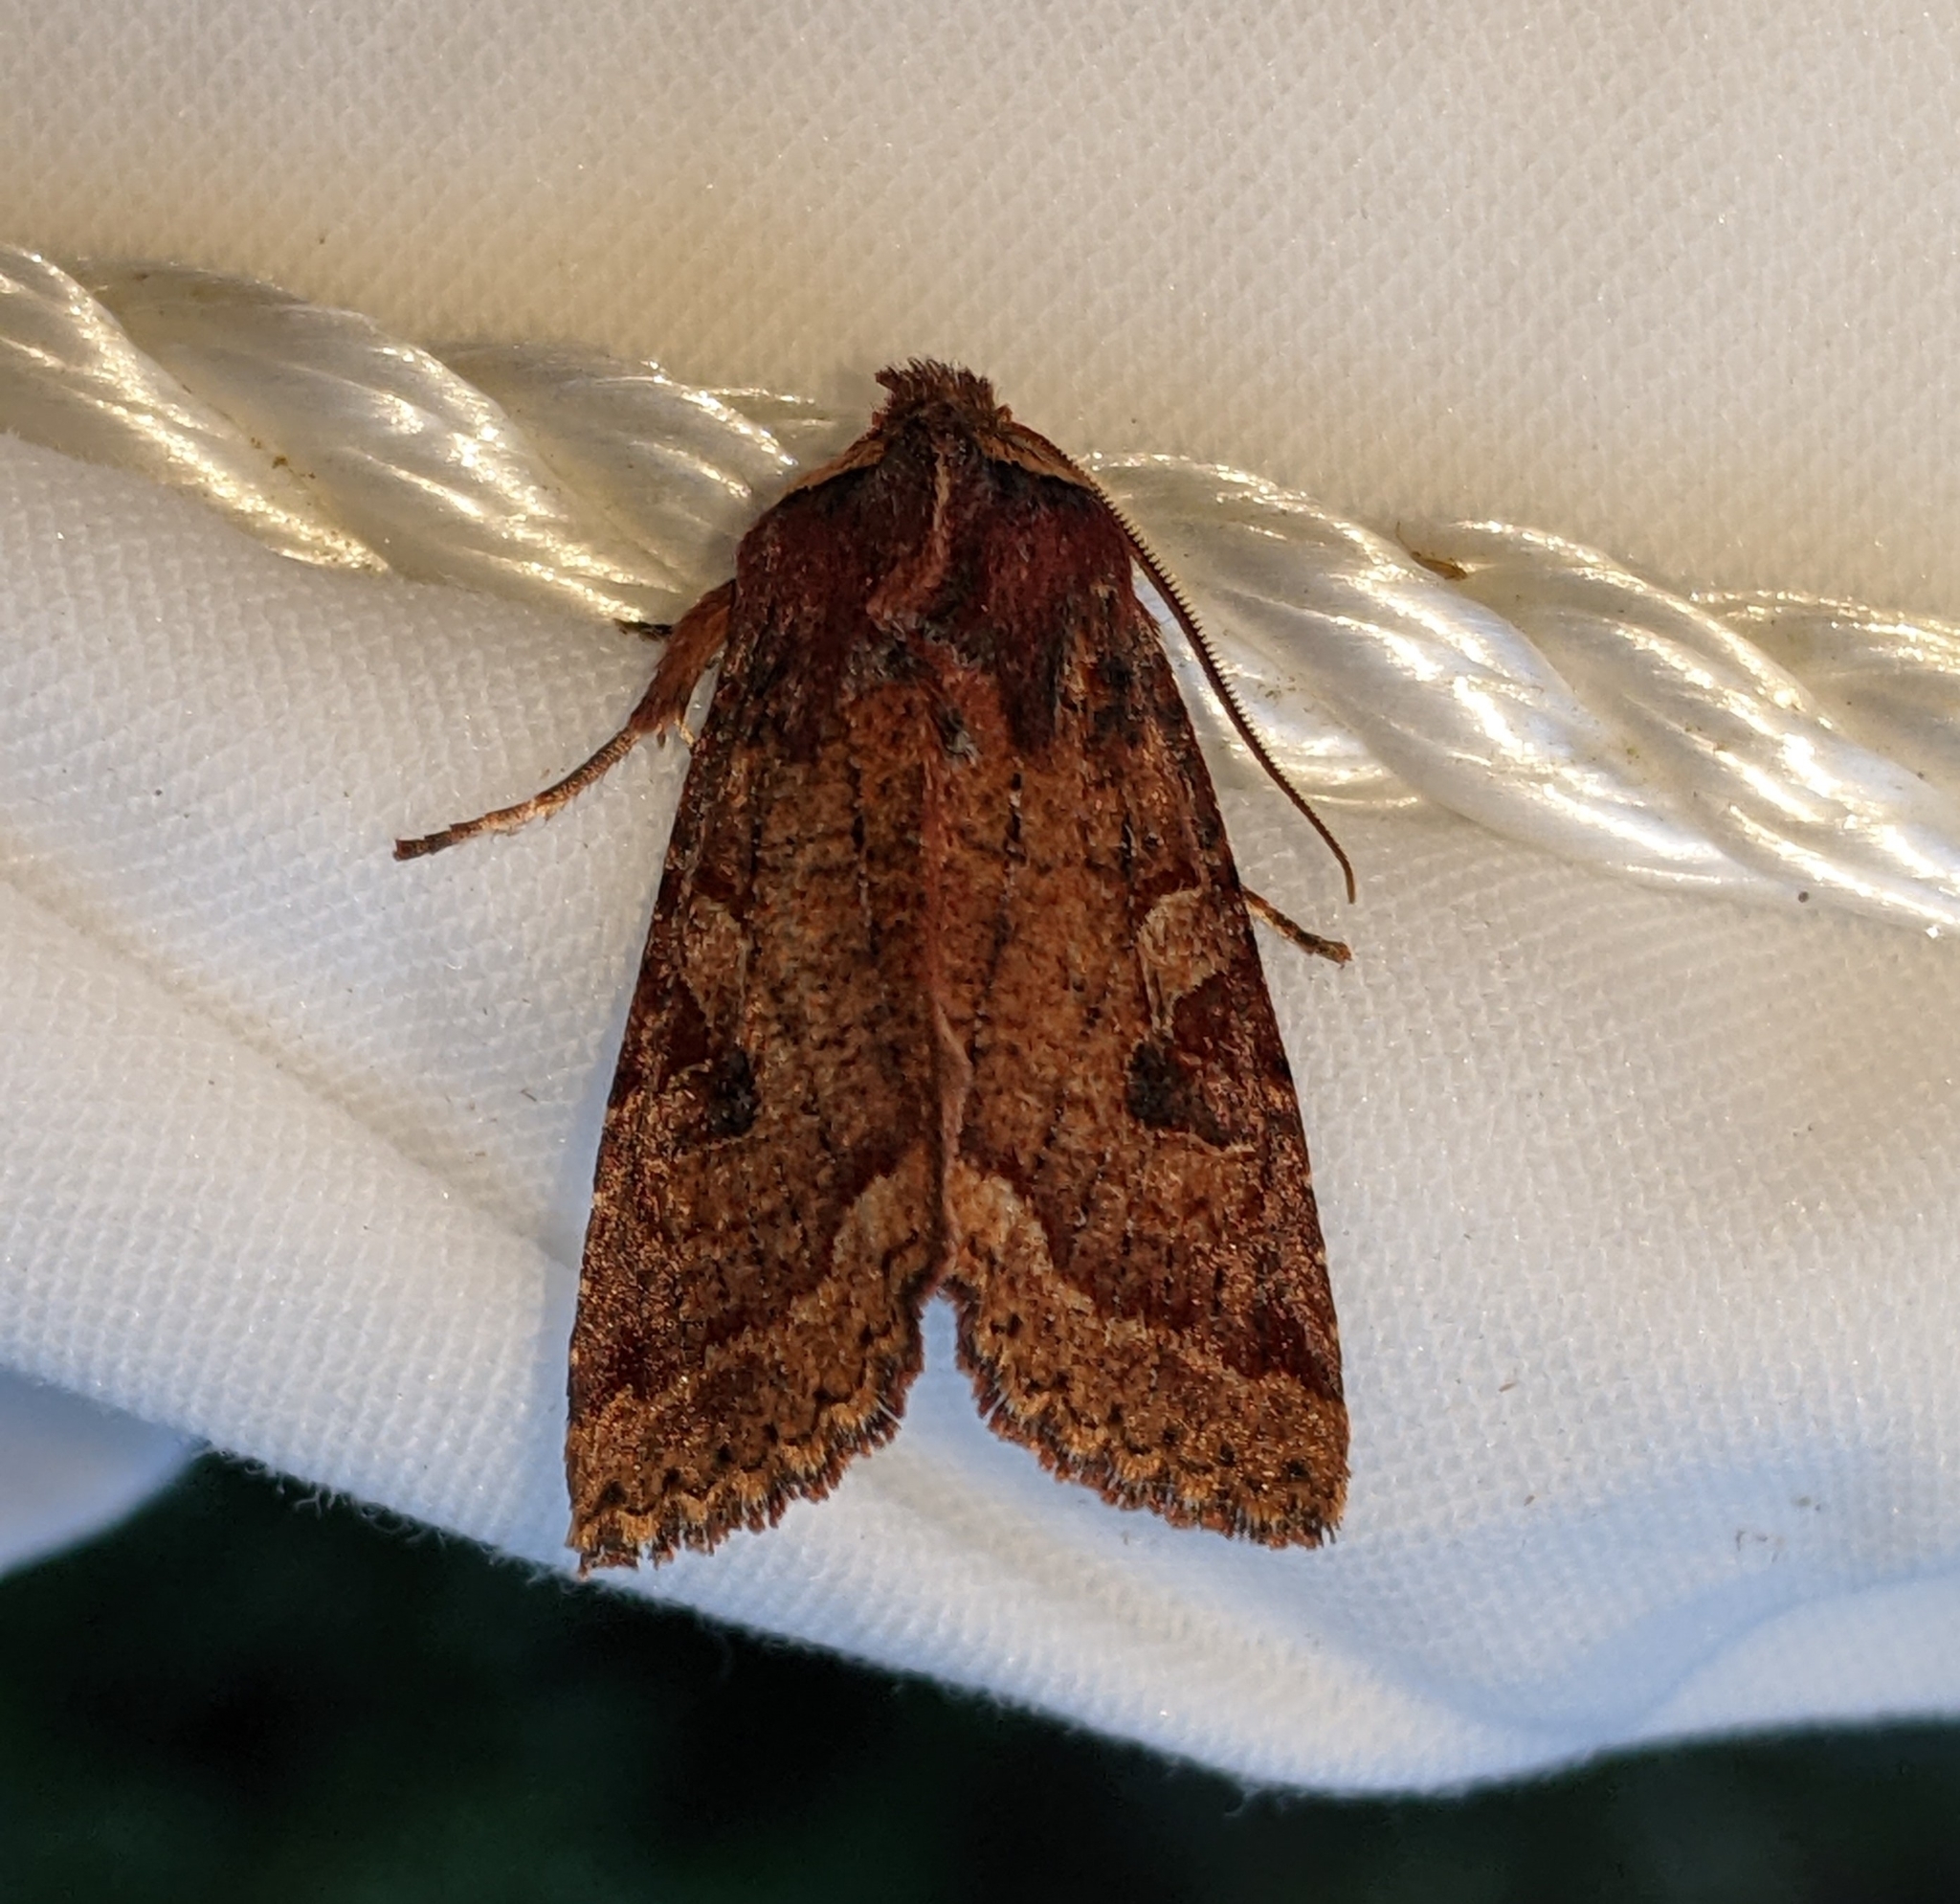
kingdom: Animalia
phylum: Arthropoda
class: Insecta
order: Lepidoptera
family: Noctuidae
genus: Orthosia
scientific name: Orthosia praeses
